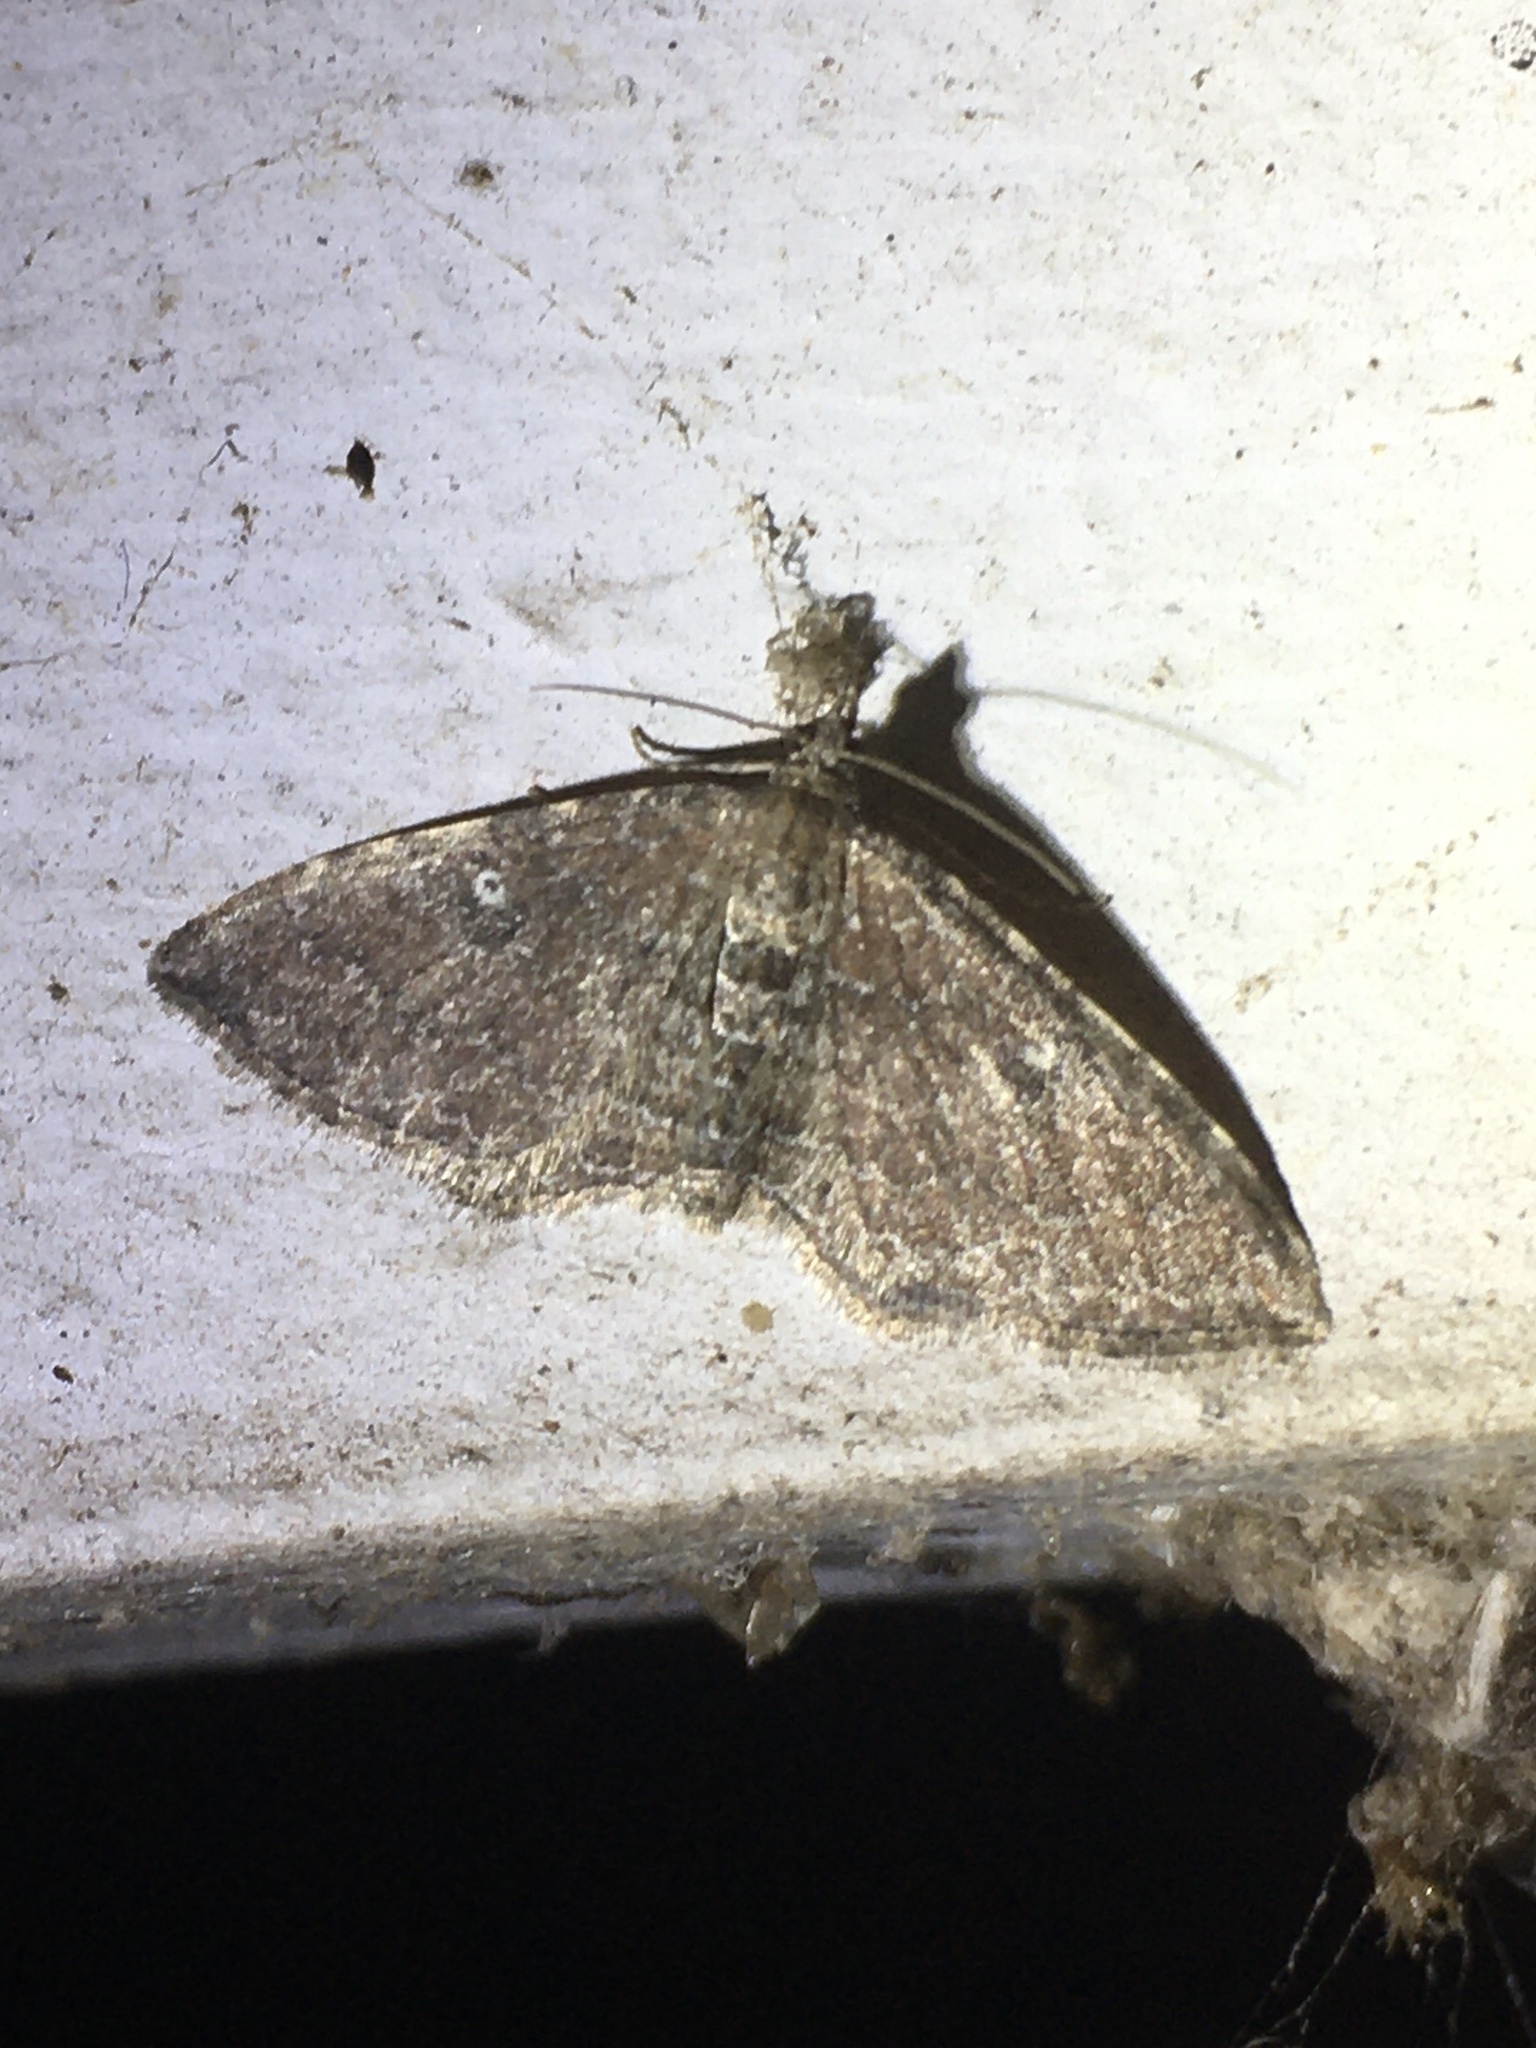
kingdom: Animalia
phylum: Arthropoda
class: Insecta
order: Lepidoptera
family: Geometridae
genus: Orthonama
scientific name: Orthonama obstipata
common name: The gem
